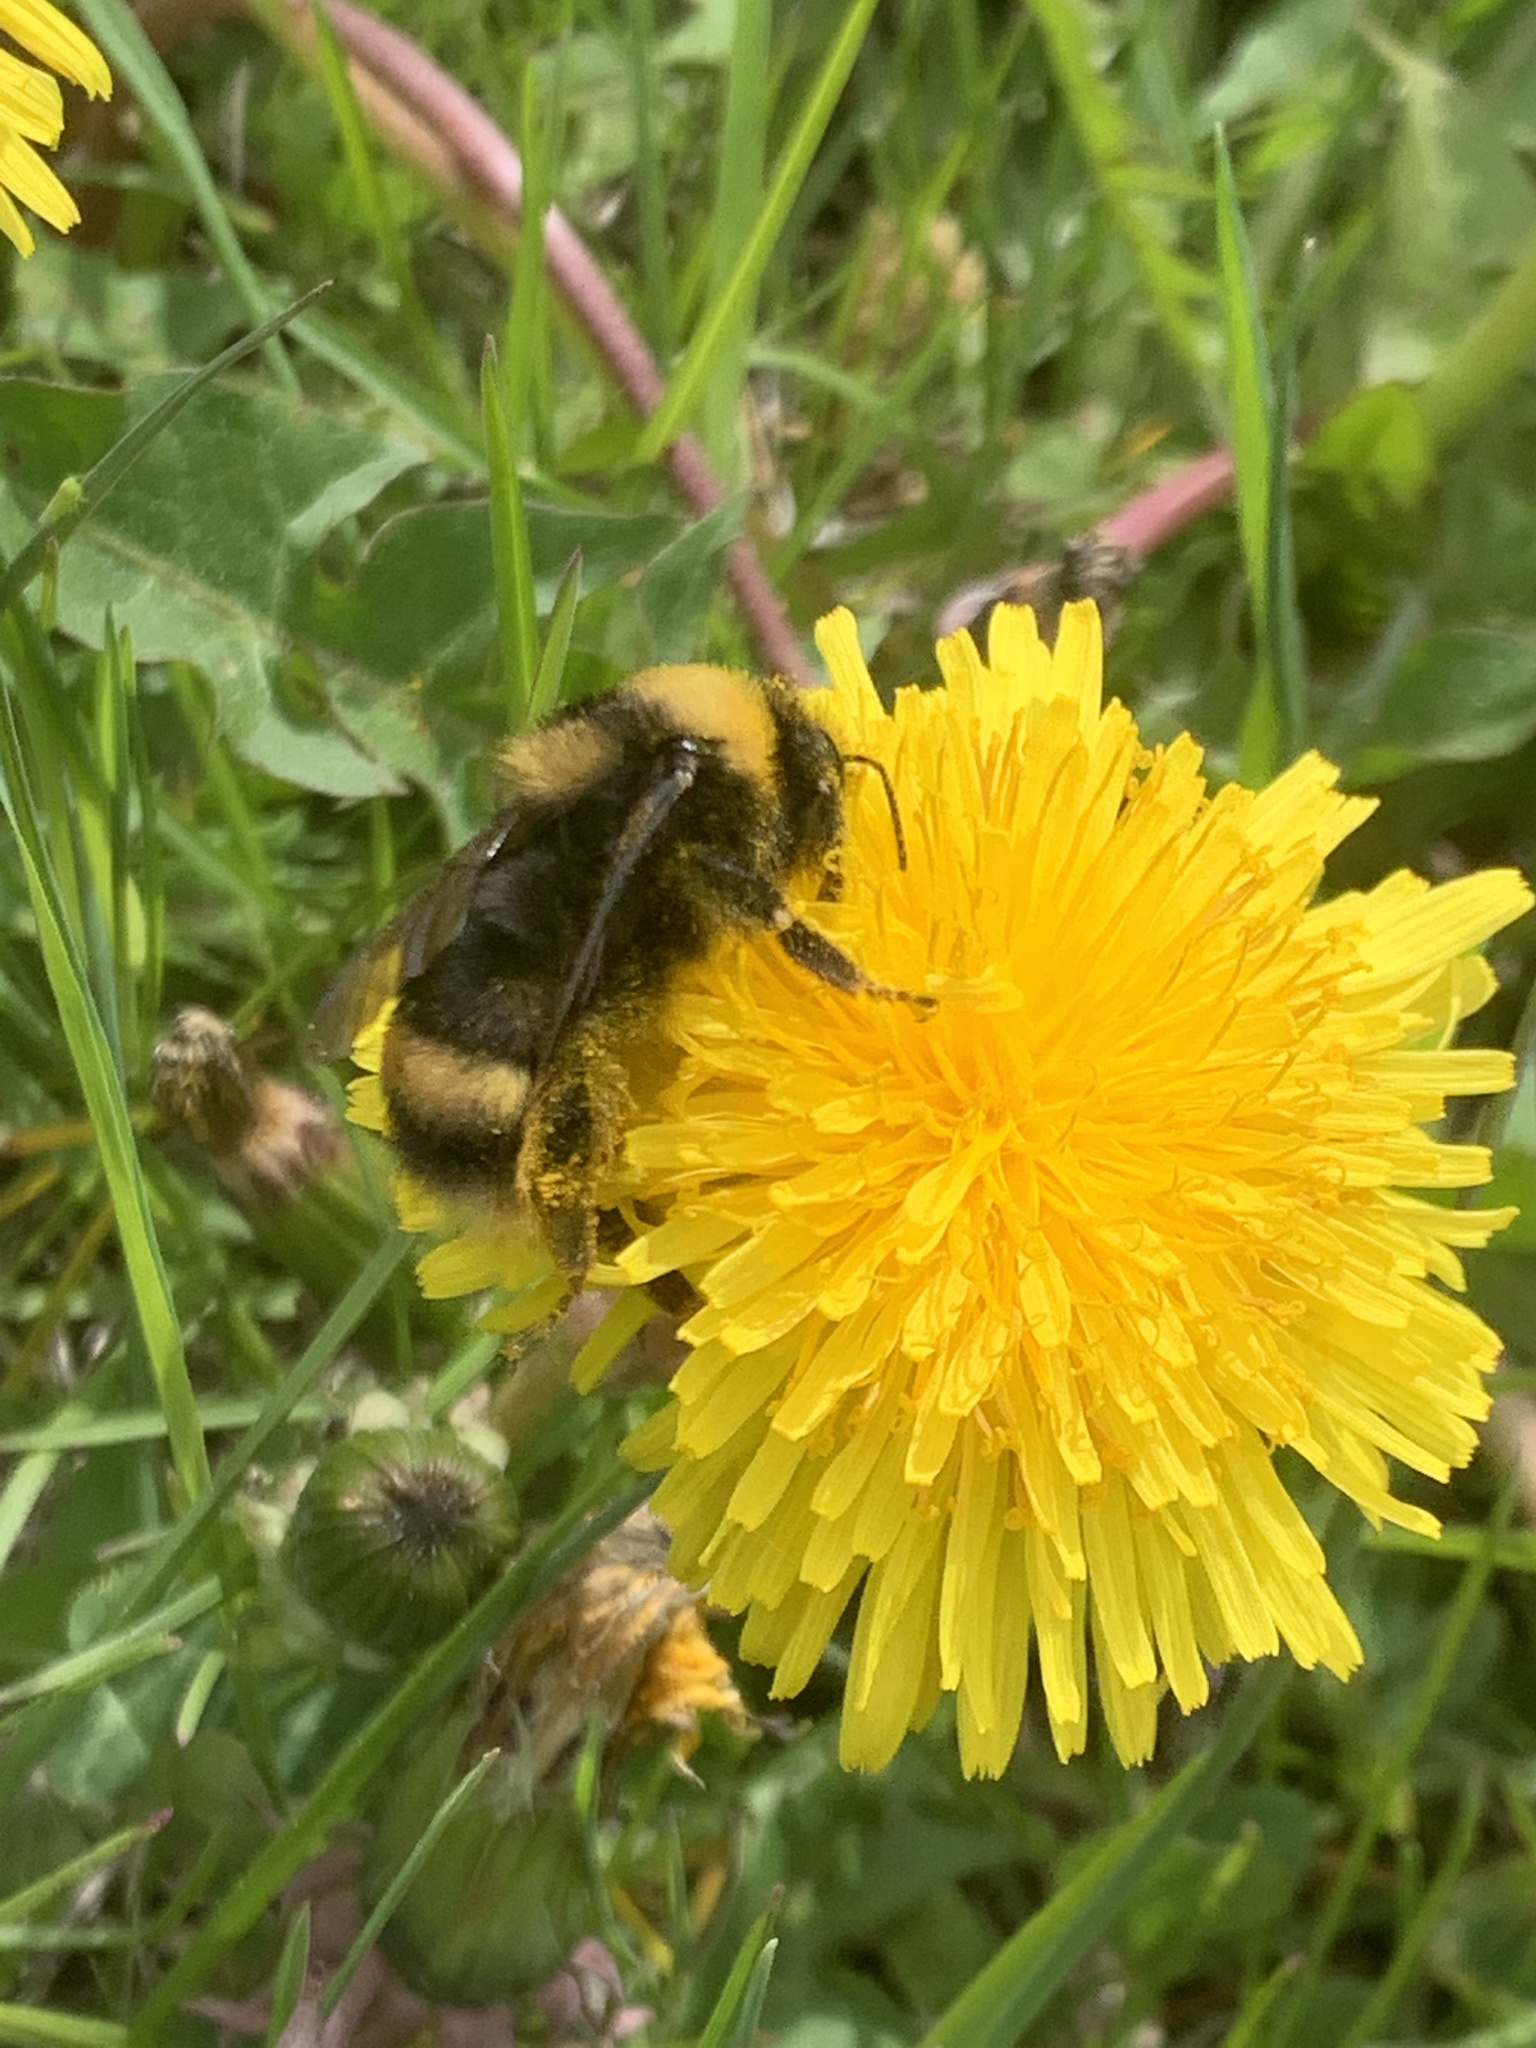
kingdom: Animalia
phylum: Arthropoda
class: Insecta
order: Hymenoptera
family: Apidae
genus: Bombus
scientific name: Bombus occidentalis
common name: Western bumble bee
